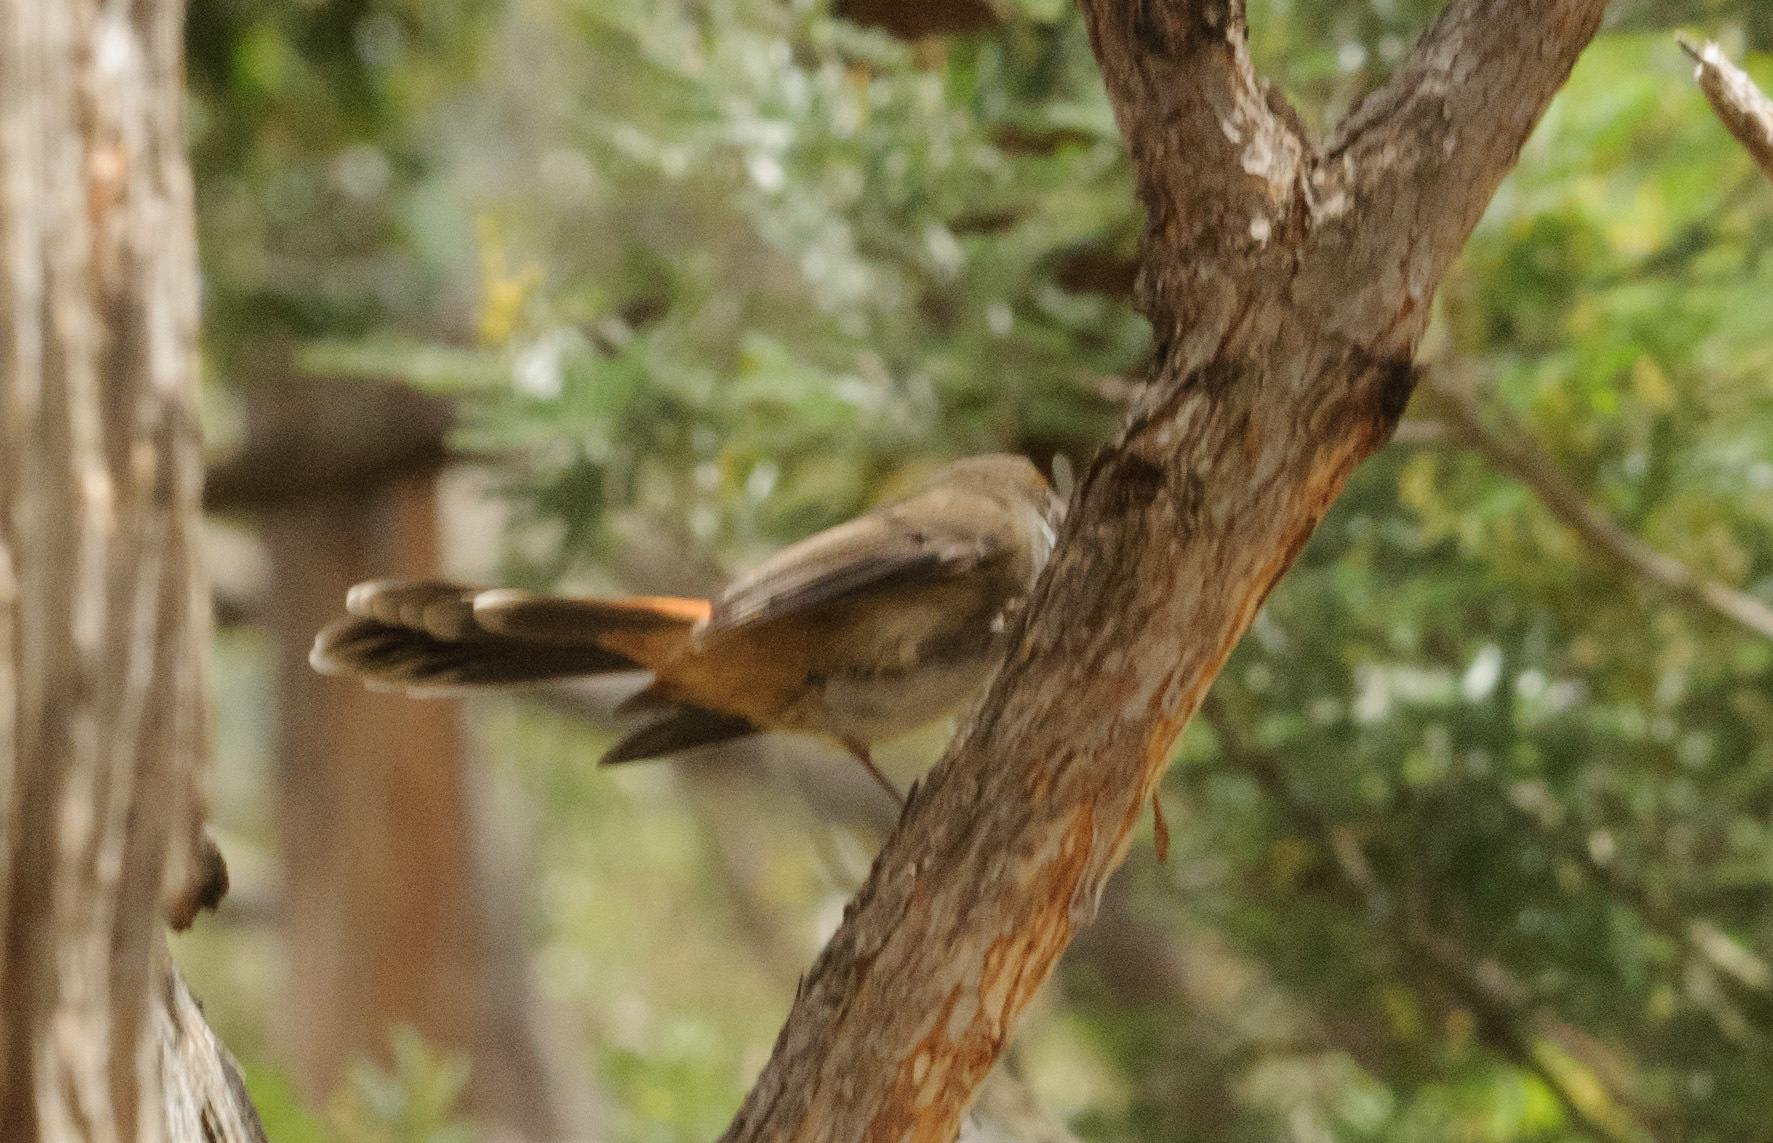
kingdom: Animalia
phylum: Chordata
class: Aves
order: Passeriformes
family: Rhipiduridae
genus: Rhipidura
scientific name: Rhipidura rufifrons
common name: Rufous fantail
